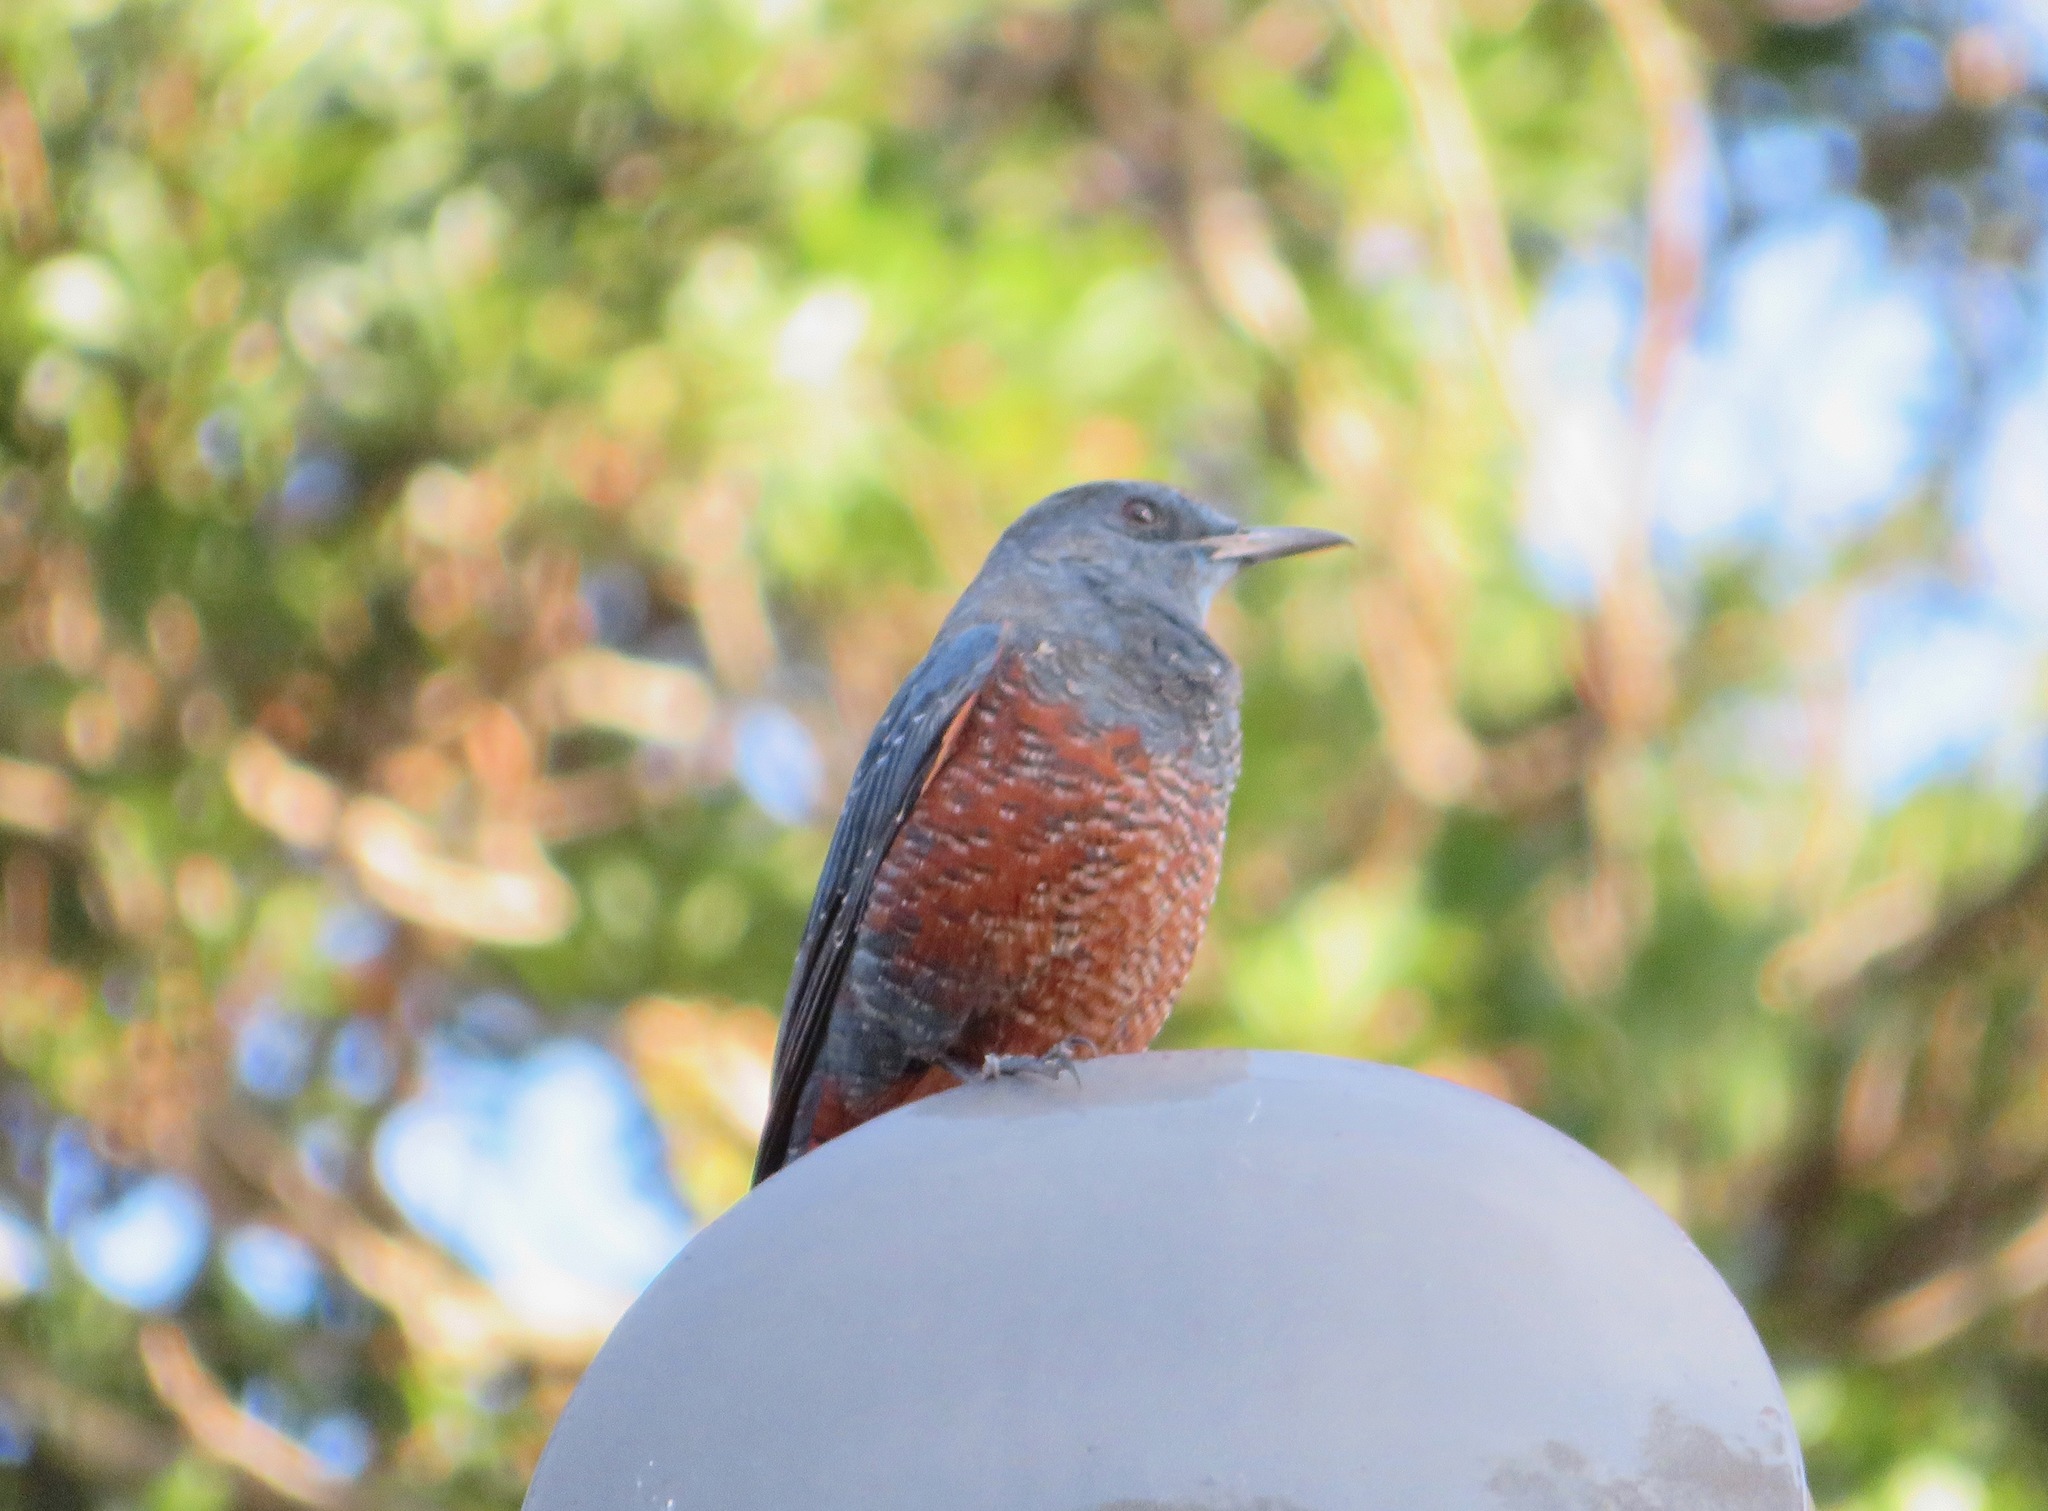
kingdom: Animalia
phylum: Chordata
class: Aves
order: Passeriformes
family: Muscicapidae
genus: Monticola
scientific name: Monticola solitarius
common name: Blue rock thrush
